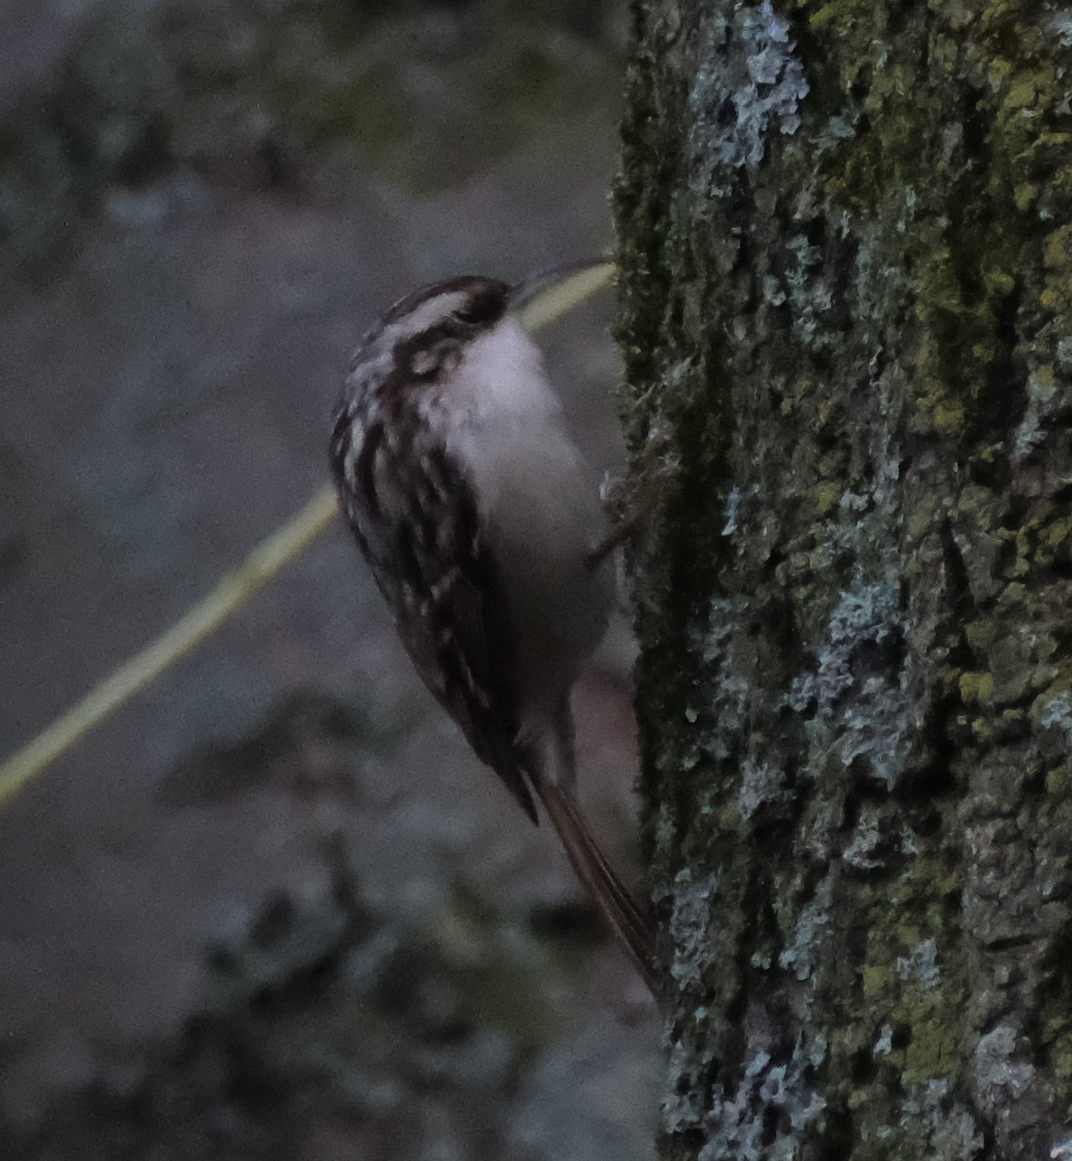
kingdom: Animalia
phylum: Chordata
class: Aves
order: Passeriformes
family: Certhiidae
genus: Certhia
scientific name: Certhia brachydactyla
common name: Short-toed treecreeper
